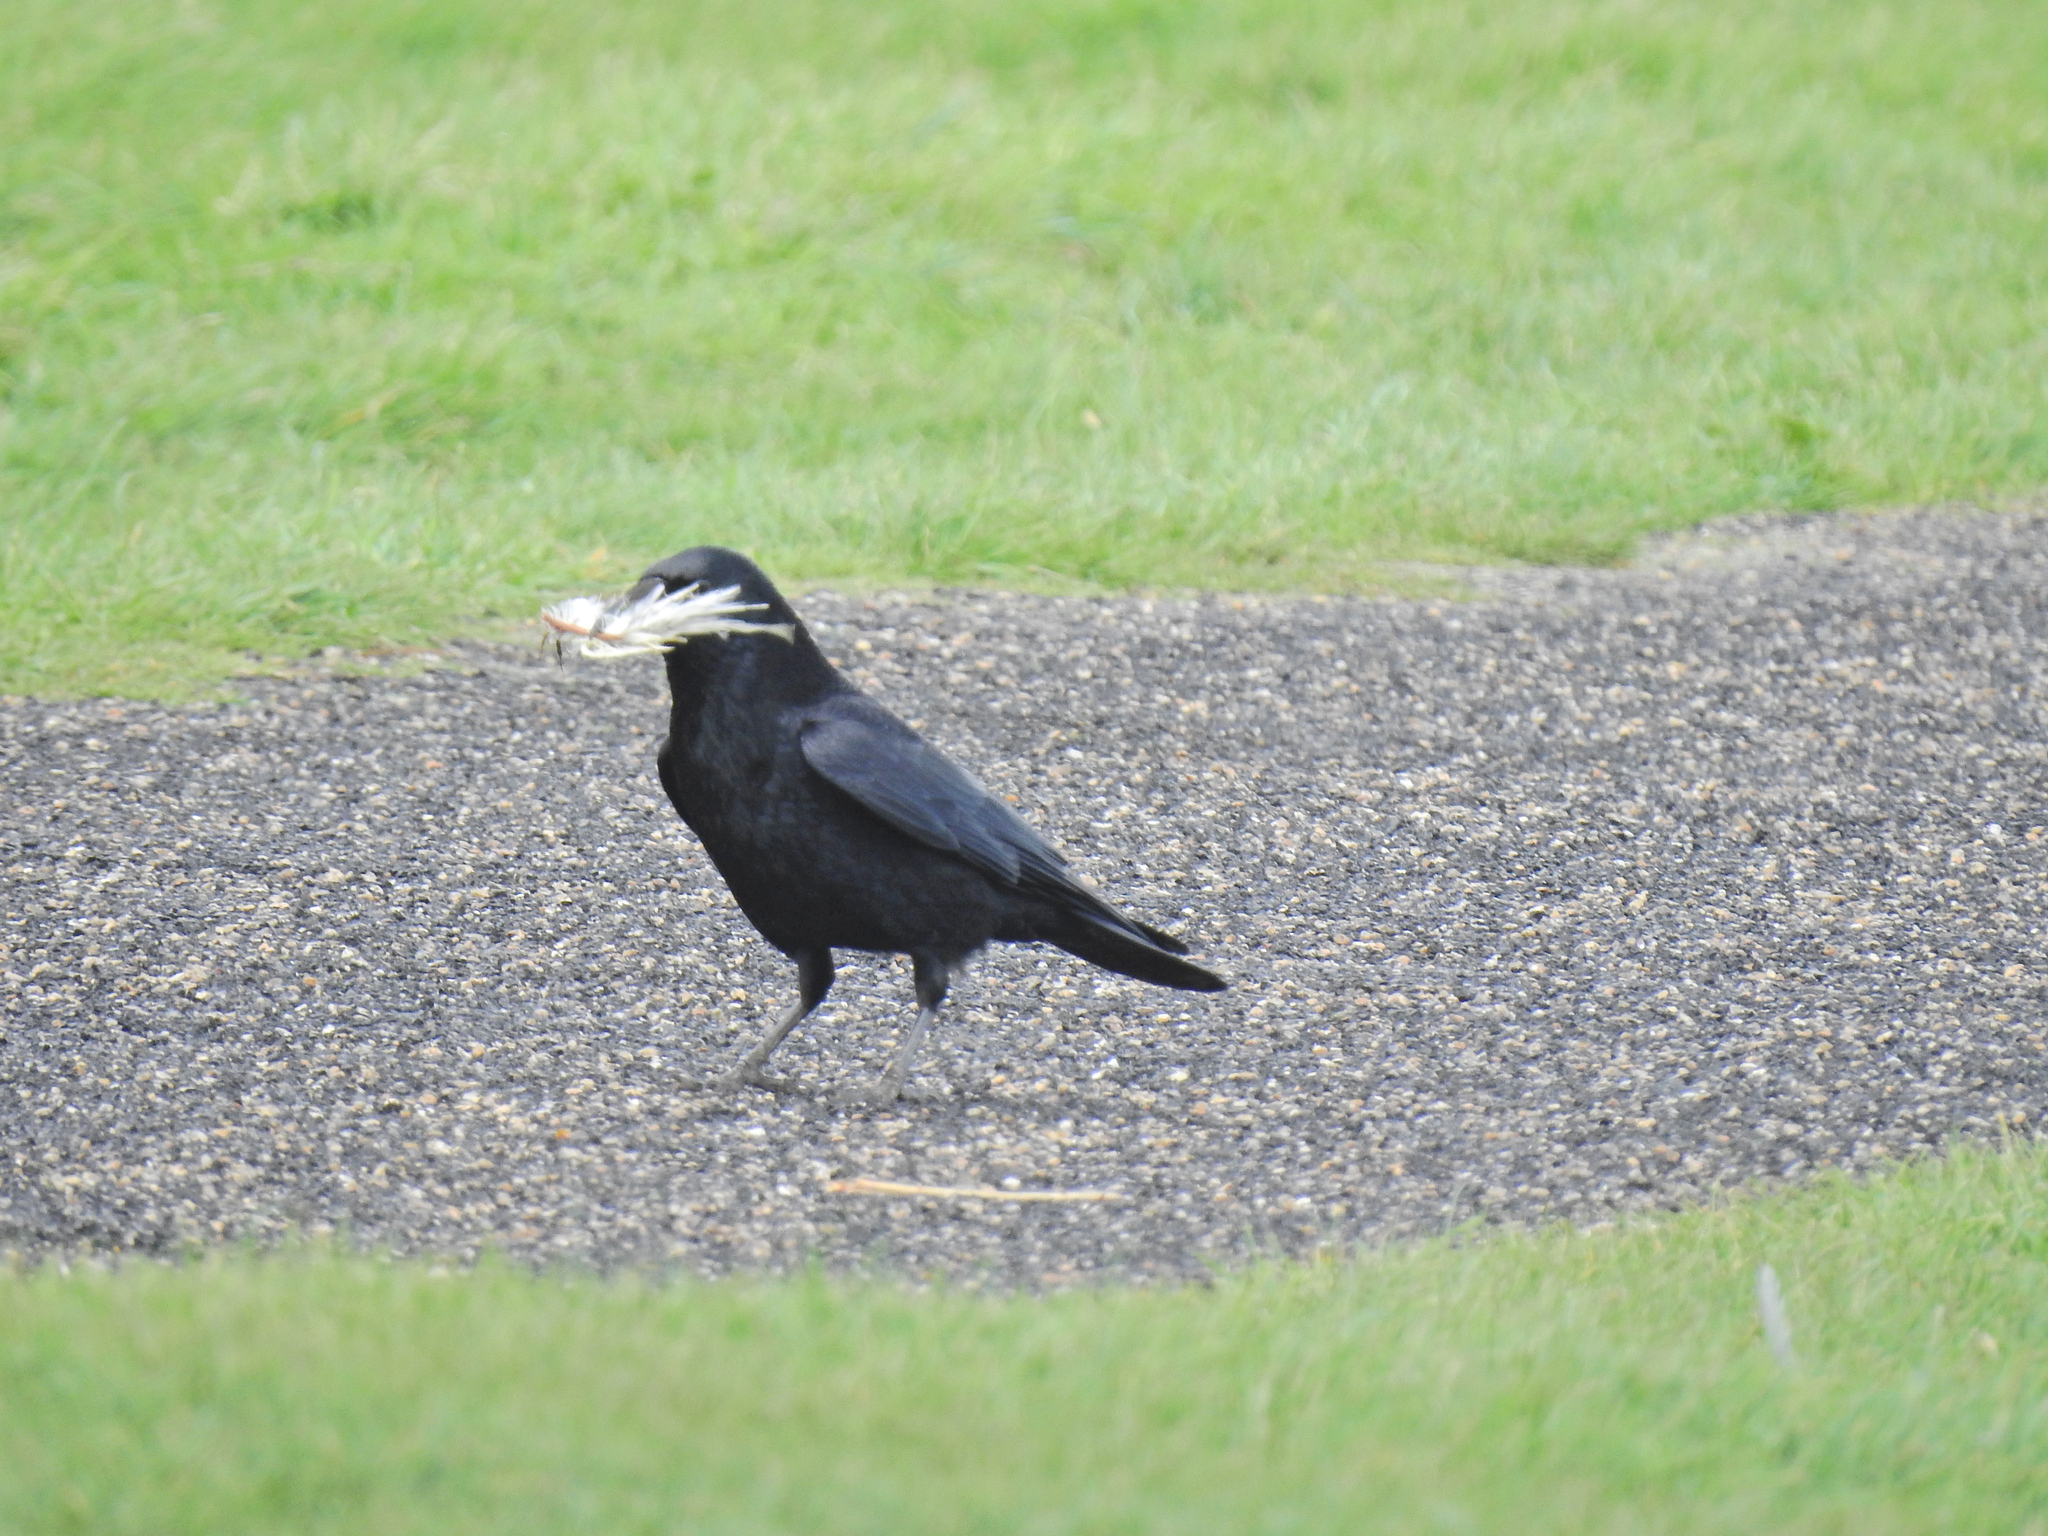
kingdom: Animalia
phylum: Chordata
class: Aves
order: Passeriformes
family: Corvidae
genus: Corvus
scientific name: Corvus corone
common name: Carrion crow
